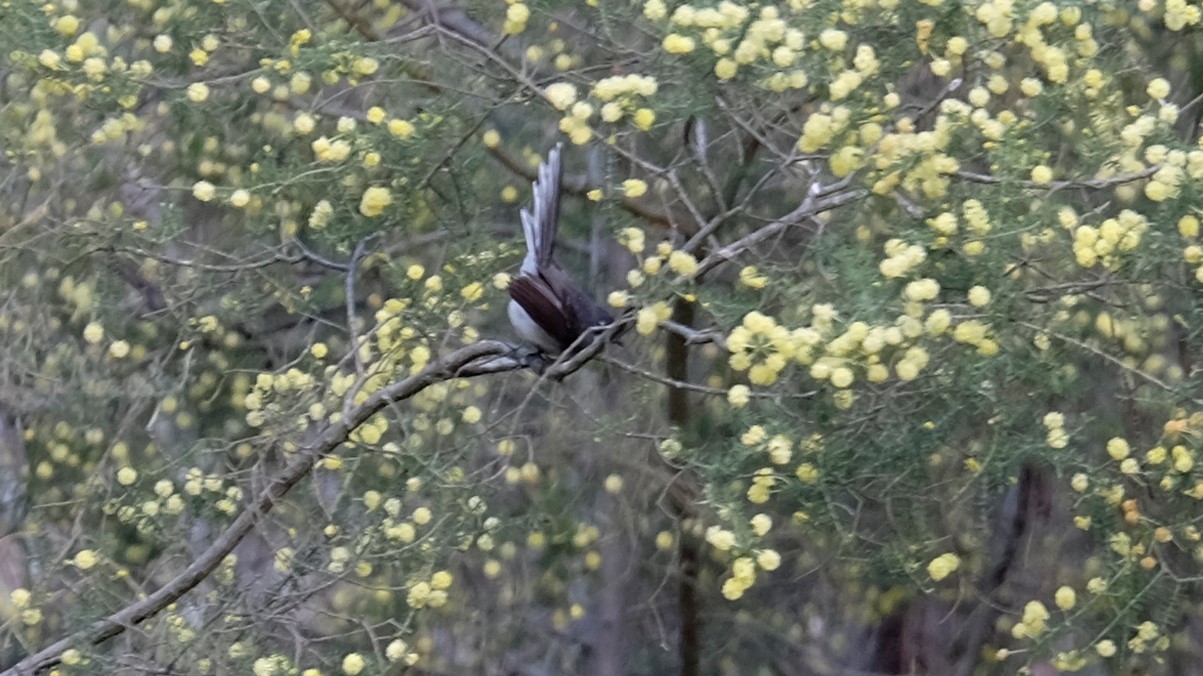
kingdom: Animalia
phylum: Chordata
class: Aves
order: Passeriformes
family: Rhipiduridae
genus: Rhipidura
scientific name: Rhipidura albiscapa
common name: Grey fantail
